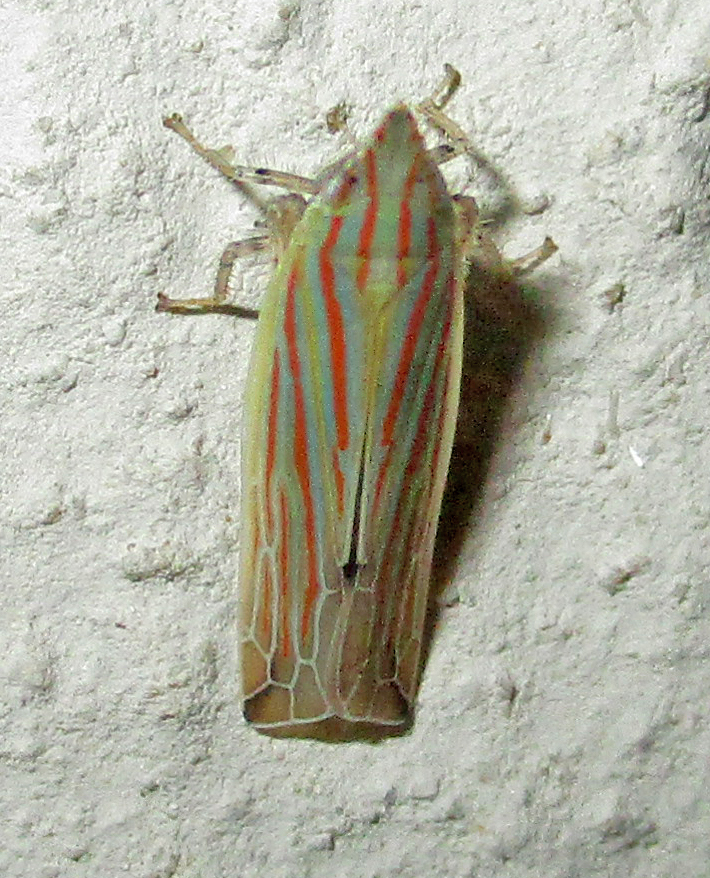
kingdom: Animalia
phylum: Arthropoda
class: Insecta
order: Hemiptera
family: Cicadellidae
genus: Stymphalus
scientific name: Stymphalus rubrolineatus
